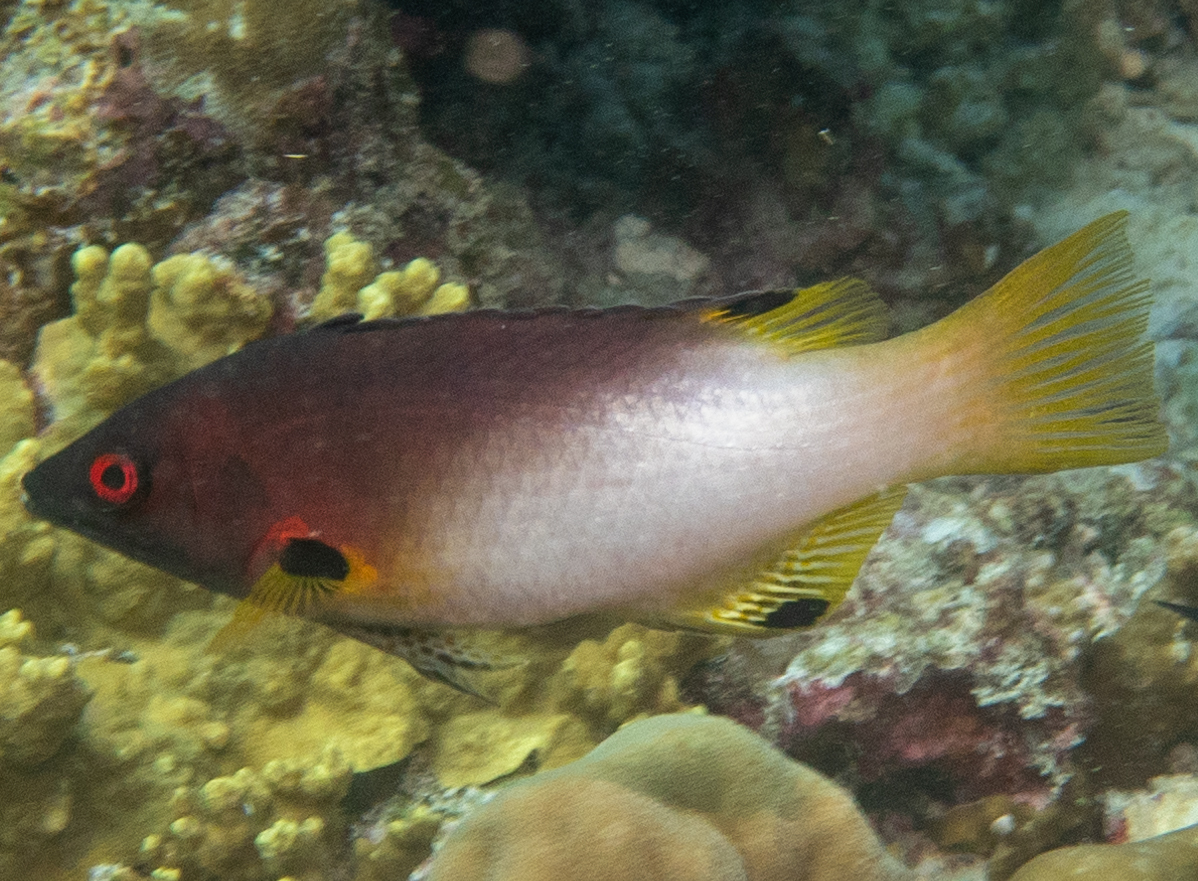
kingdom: Animalia
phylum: Chordata
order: Perciformes
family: Labridae
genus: Bodianus
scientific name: Bodianus axillaris
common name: Axilspot hogfish
